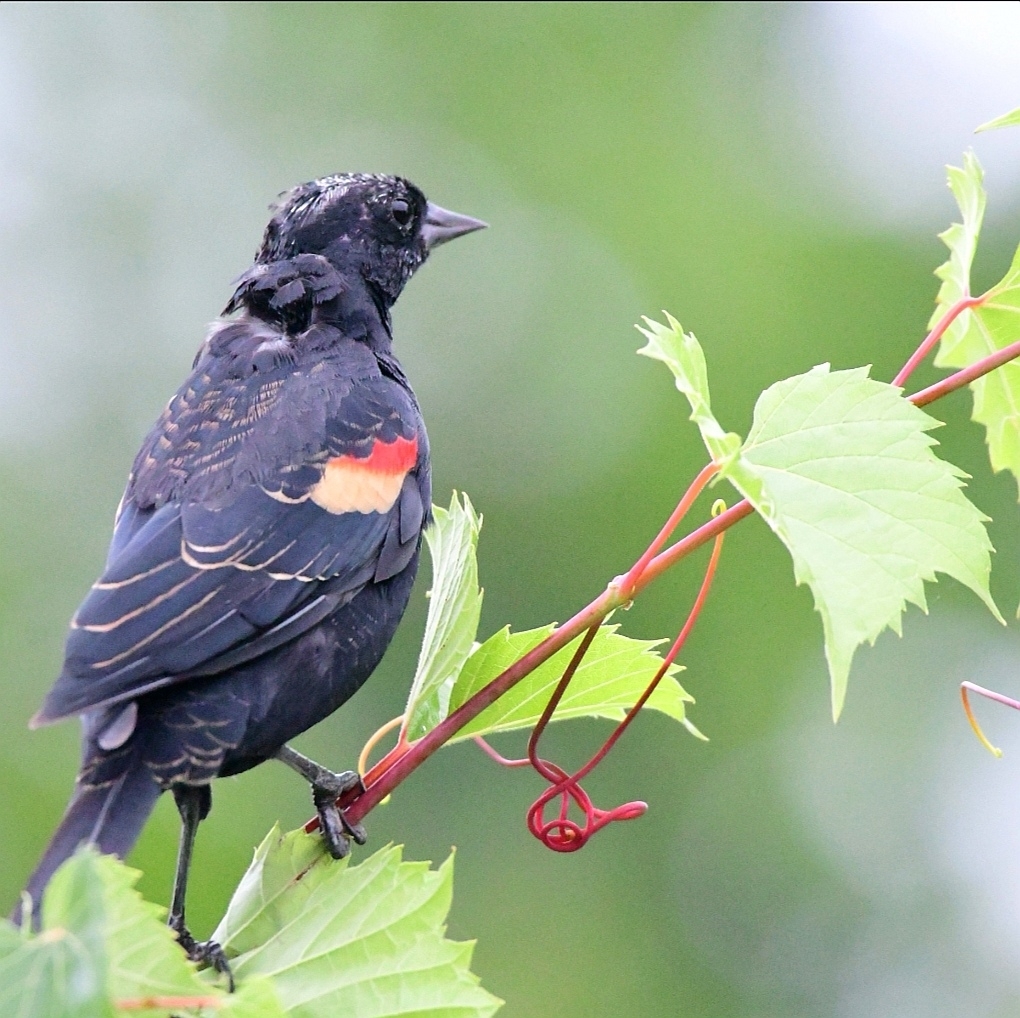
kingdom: Animalia
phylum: Chordata
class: Aves
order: Passeriformes
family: Icteridae
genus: Agelaius
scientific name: Agelaius phoeniceus
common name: Red-winged blackbird
